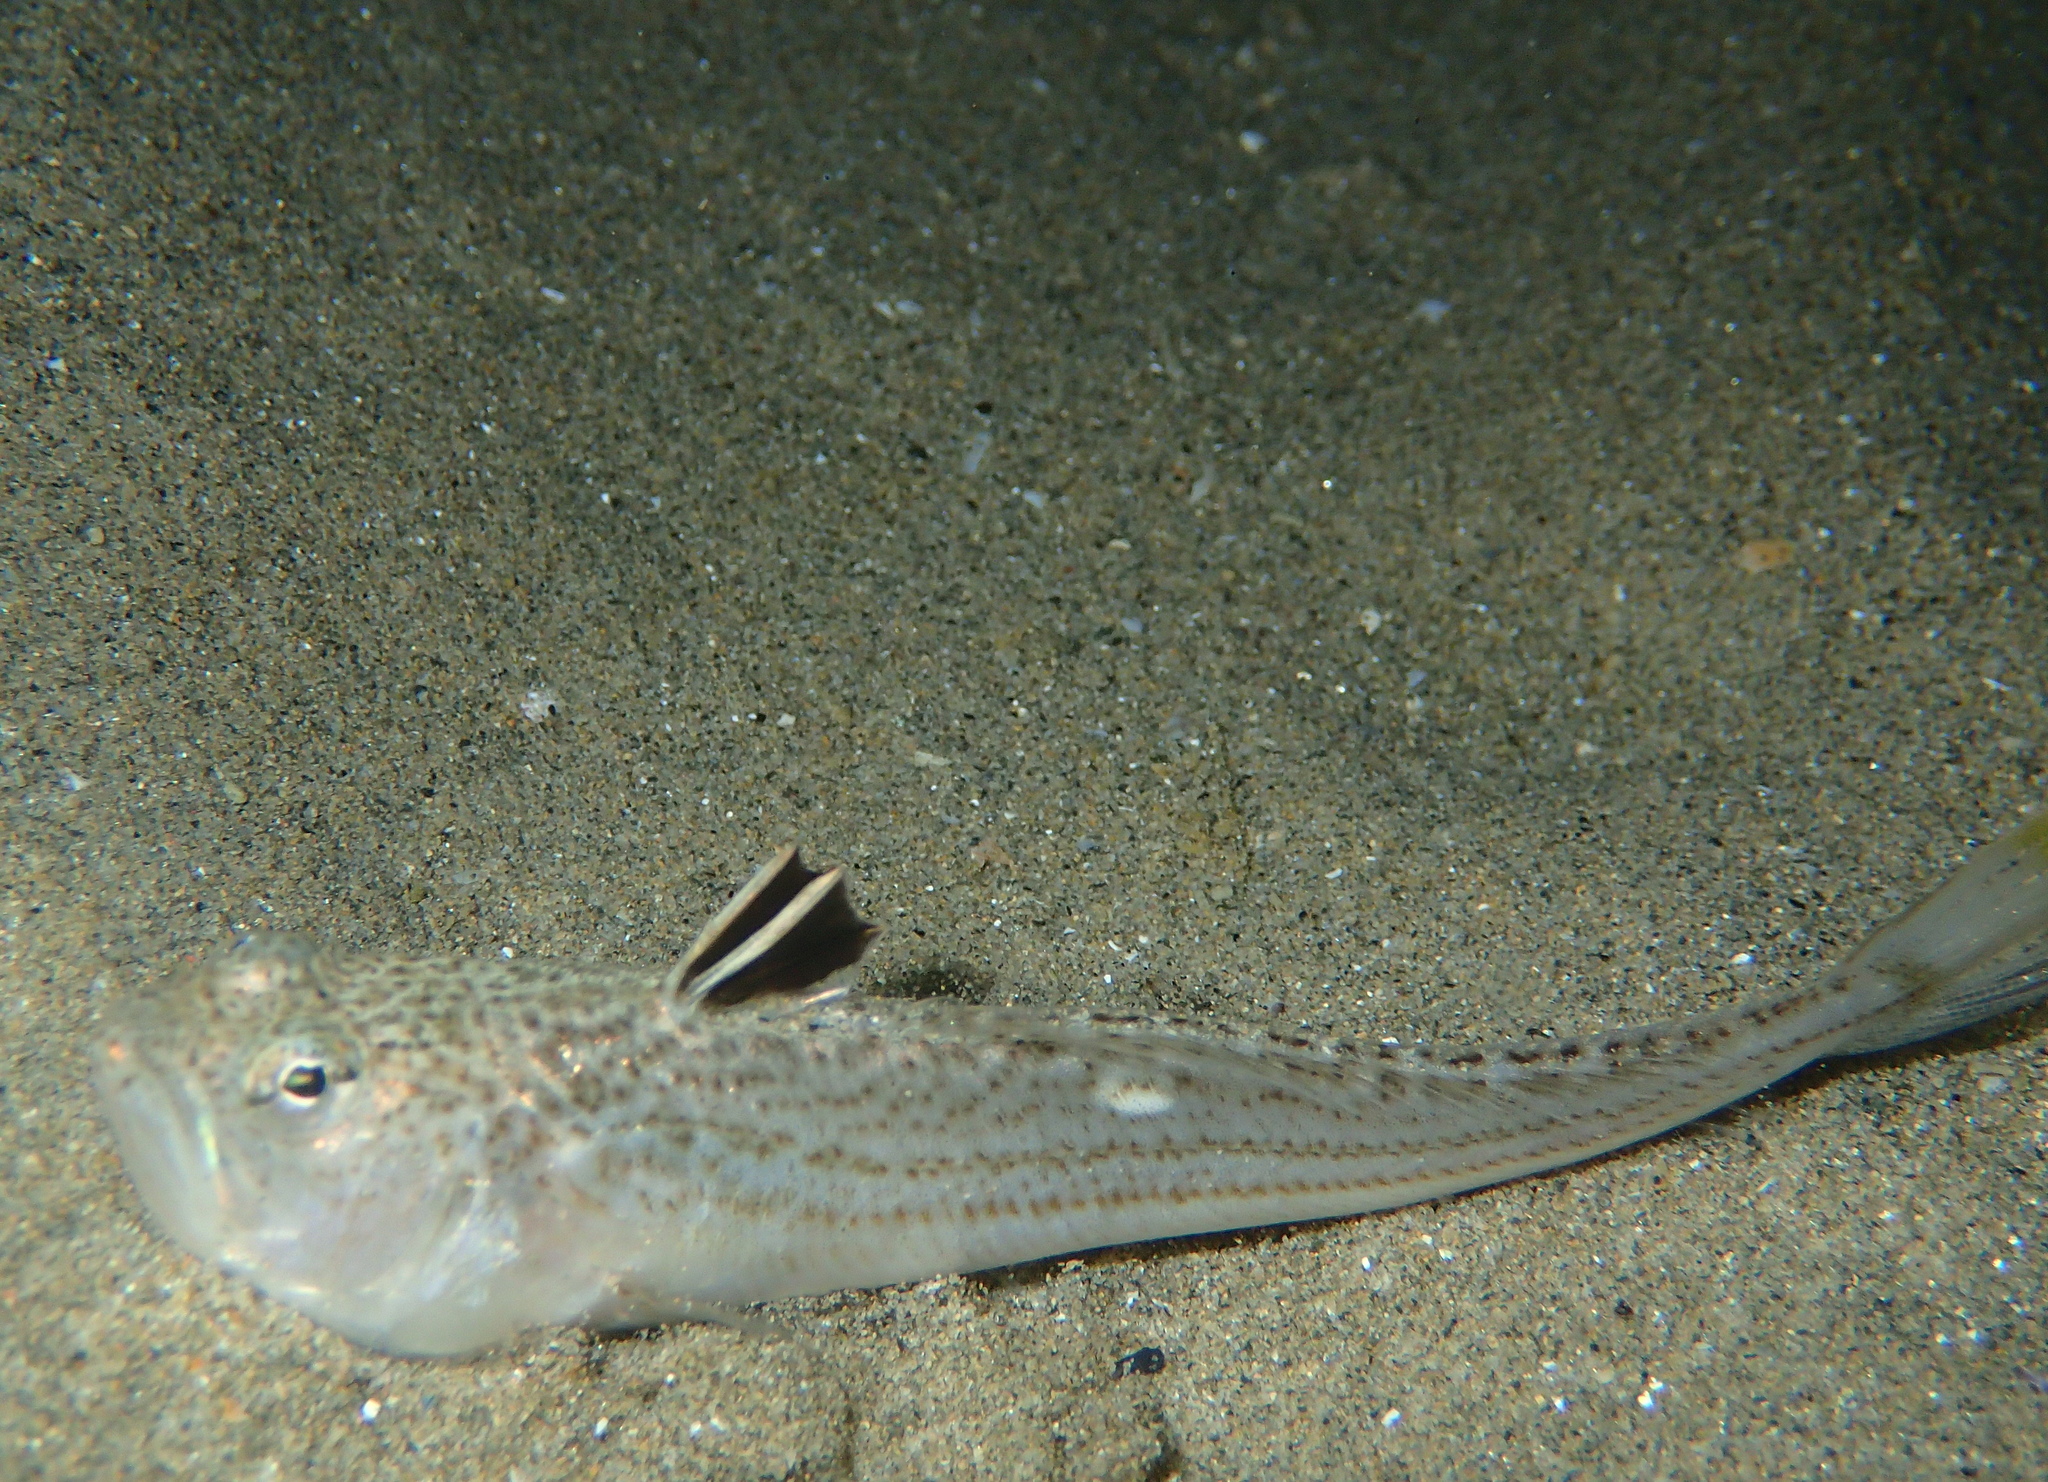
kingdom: Animalia
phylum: Chordata
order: Perciformes
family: Trachinidae
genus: Echiichthys
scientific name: Echiichthys vipera
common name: Lesser weever
